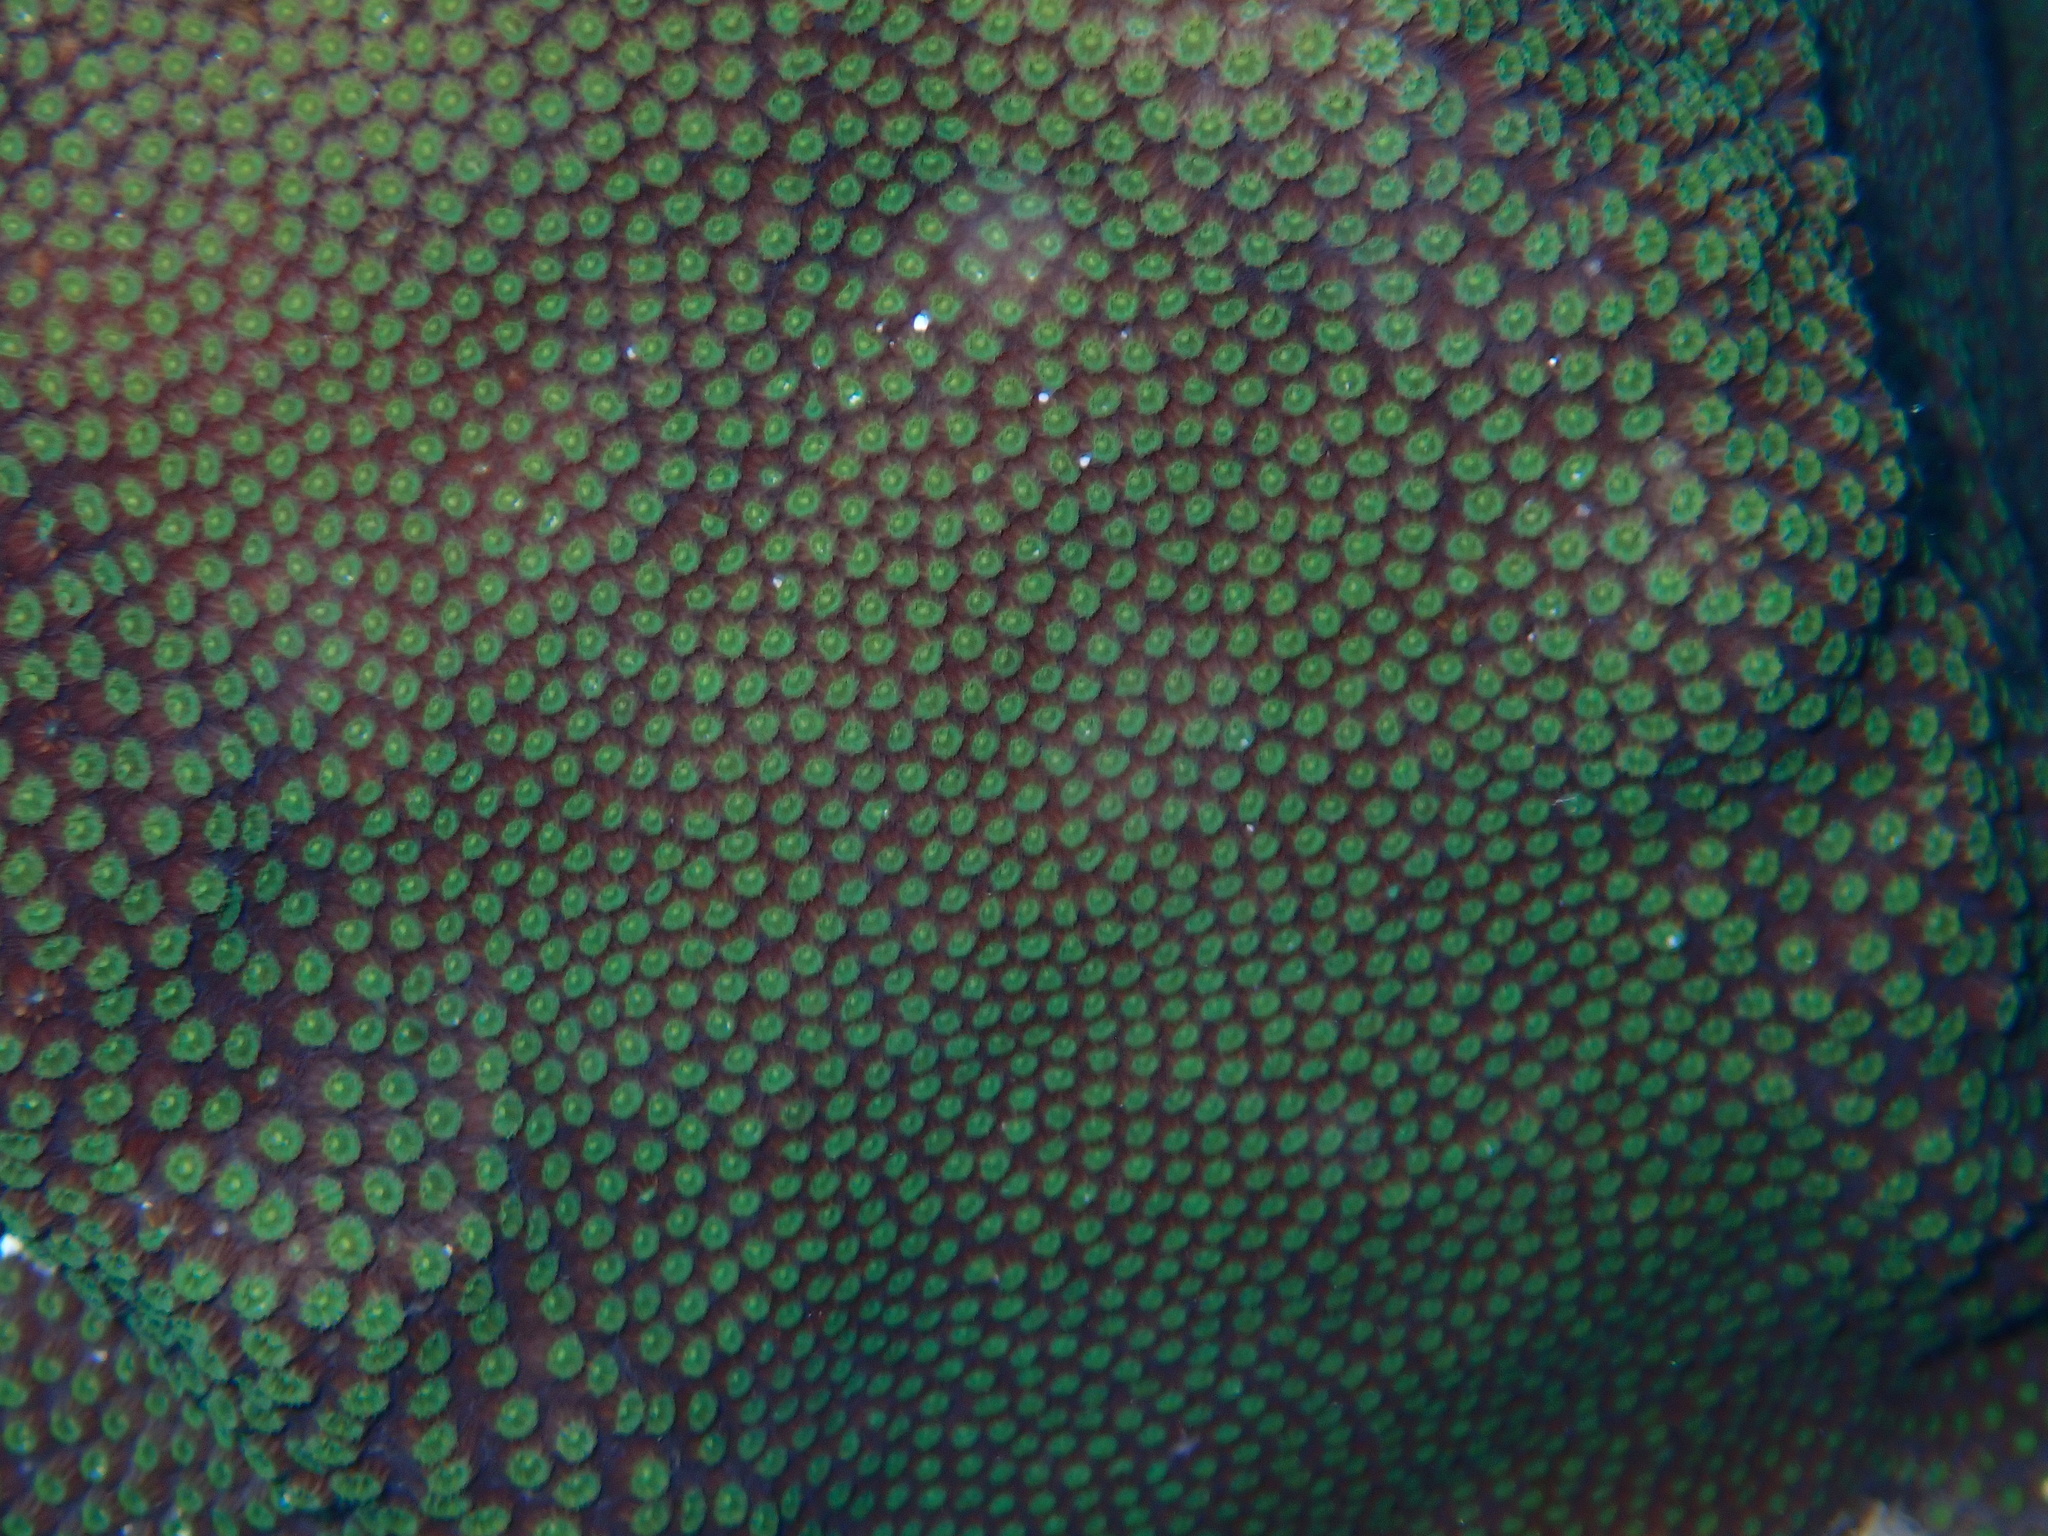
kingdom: Animalia
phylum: Cnidaria
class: Anthozoa
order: Scleractinia
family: Merulinidae
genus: Orbicella
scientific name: Orbicella faveolata
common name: Mountainous star coral
